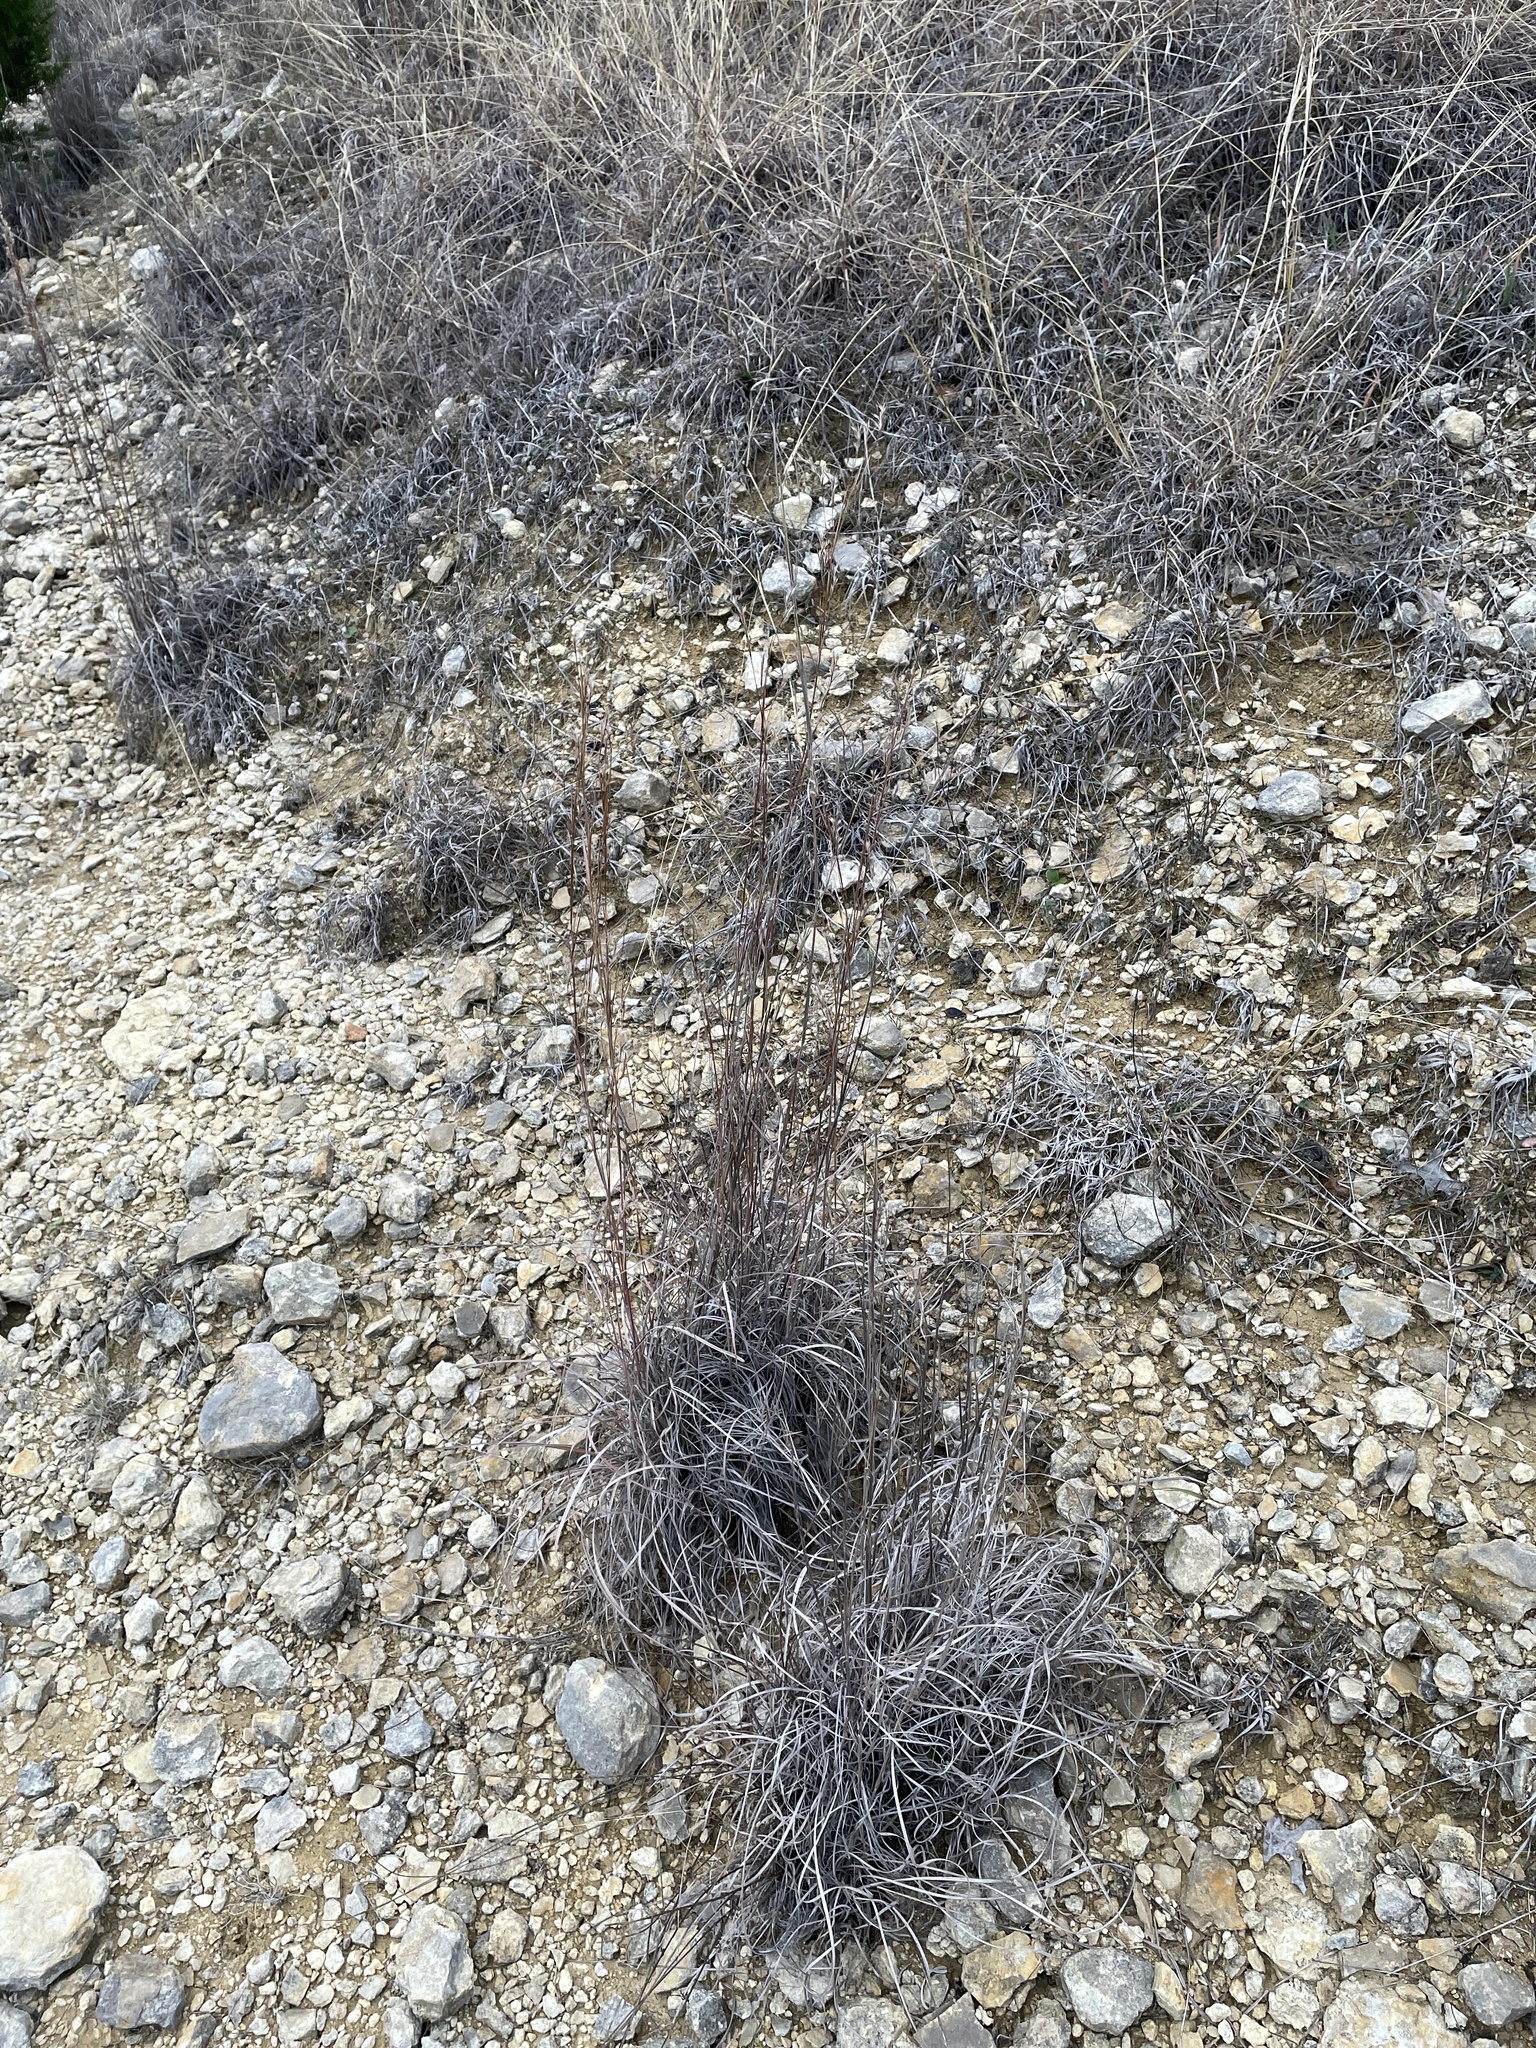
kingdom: Plantae
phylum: Tracheophyta
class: Liliopsida
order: Poales
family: Poaceae
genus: Schizachyrium
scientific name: Schizachyrium scoparium
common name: Little bluestem
